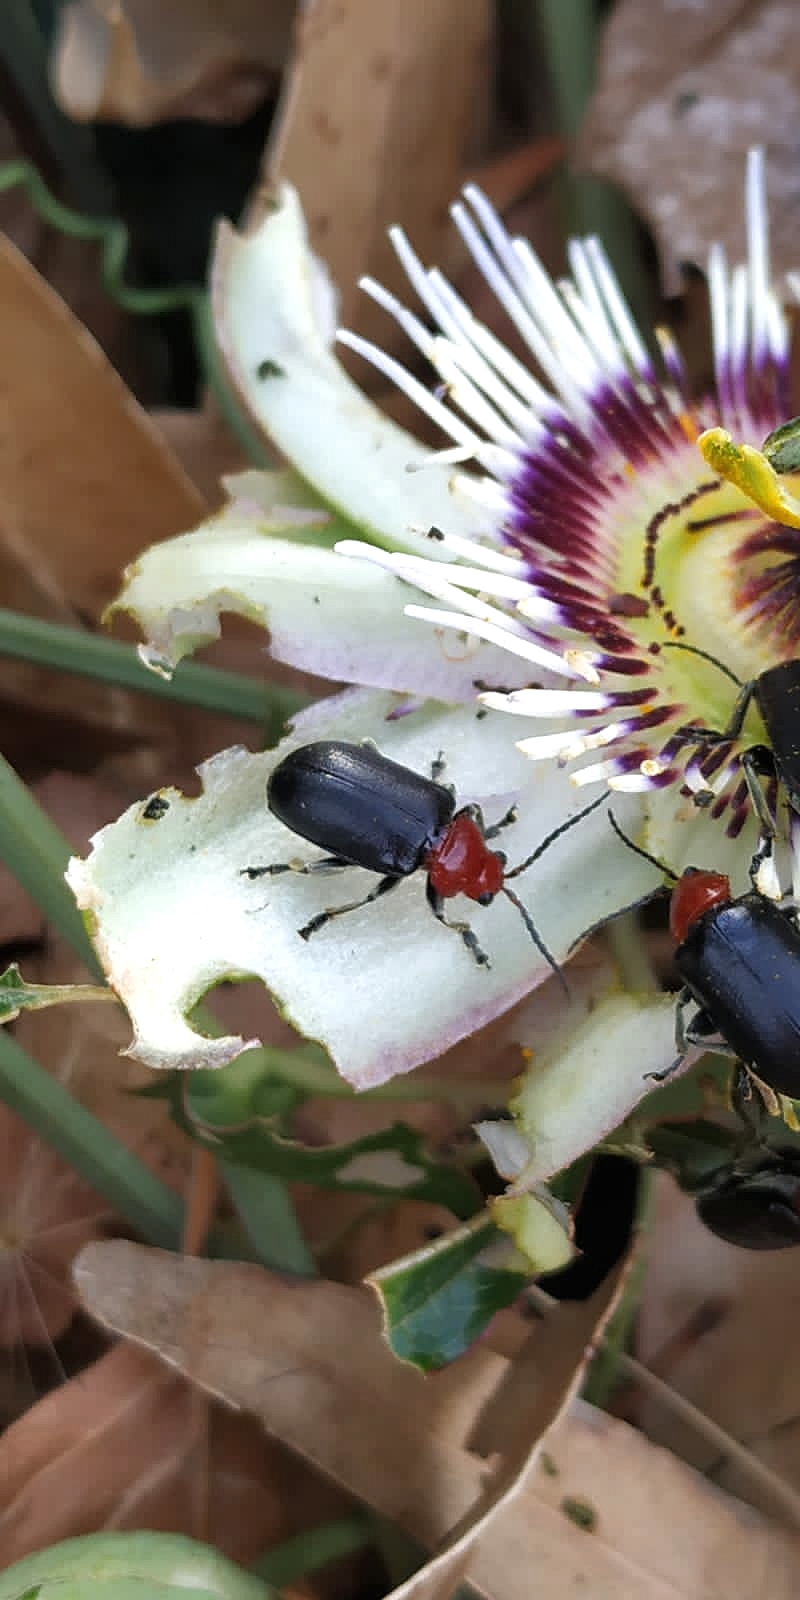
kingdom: Animalia
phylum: Arthropoda
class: Insecta
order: Coleoptera
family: Chrysomelidae
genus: Cacoscelis
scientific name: Cacoscelis
